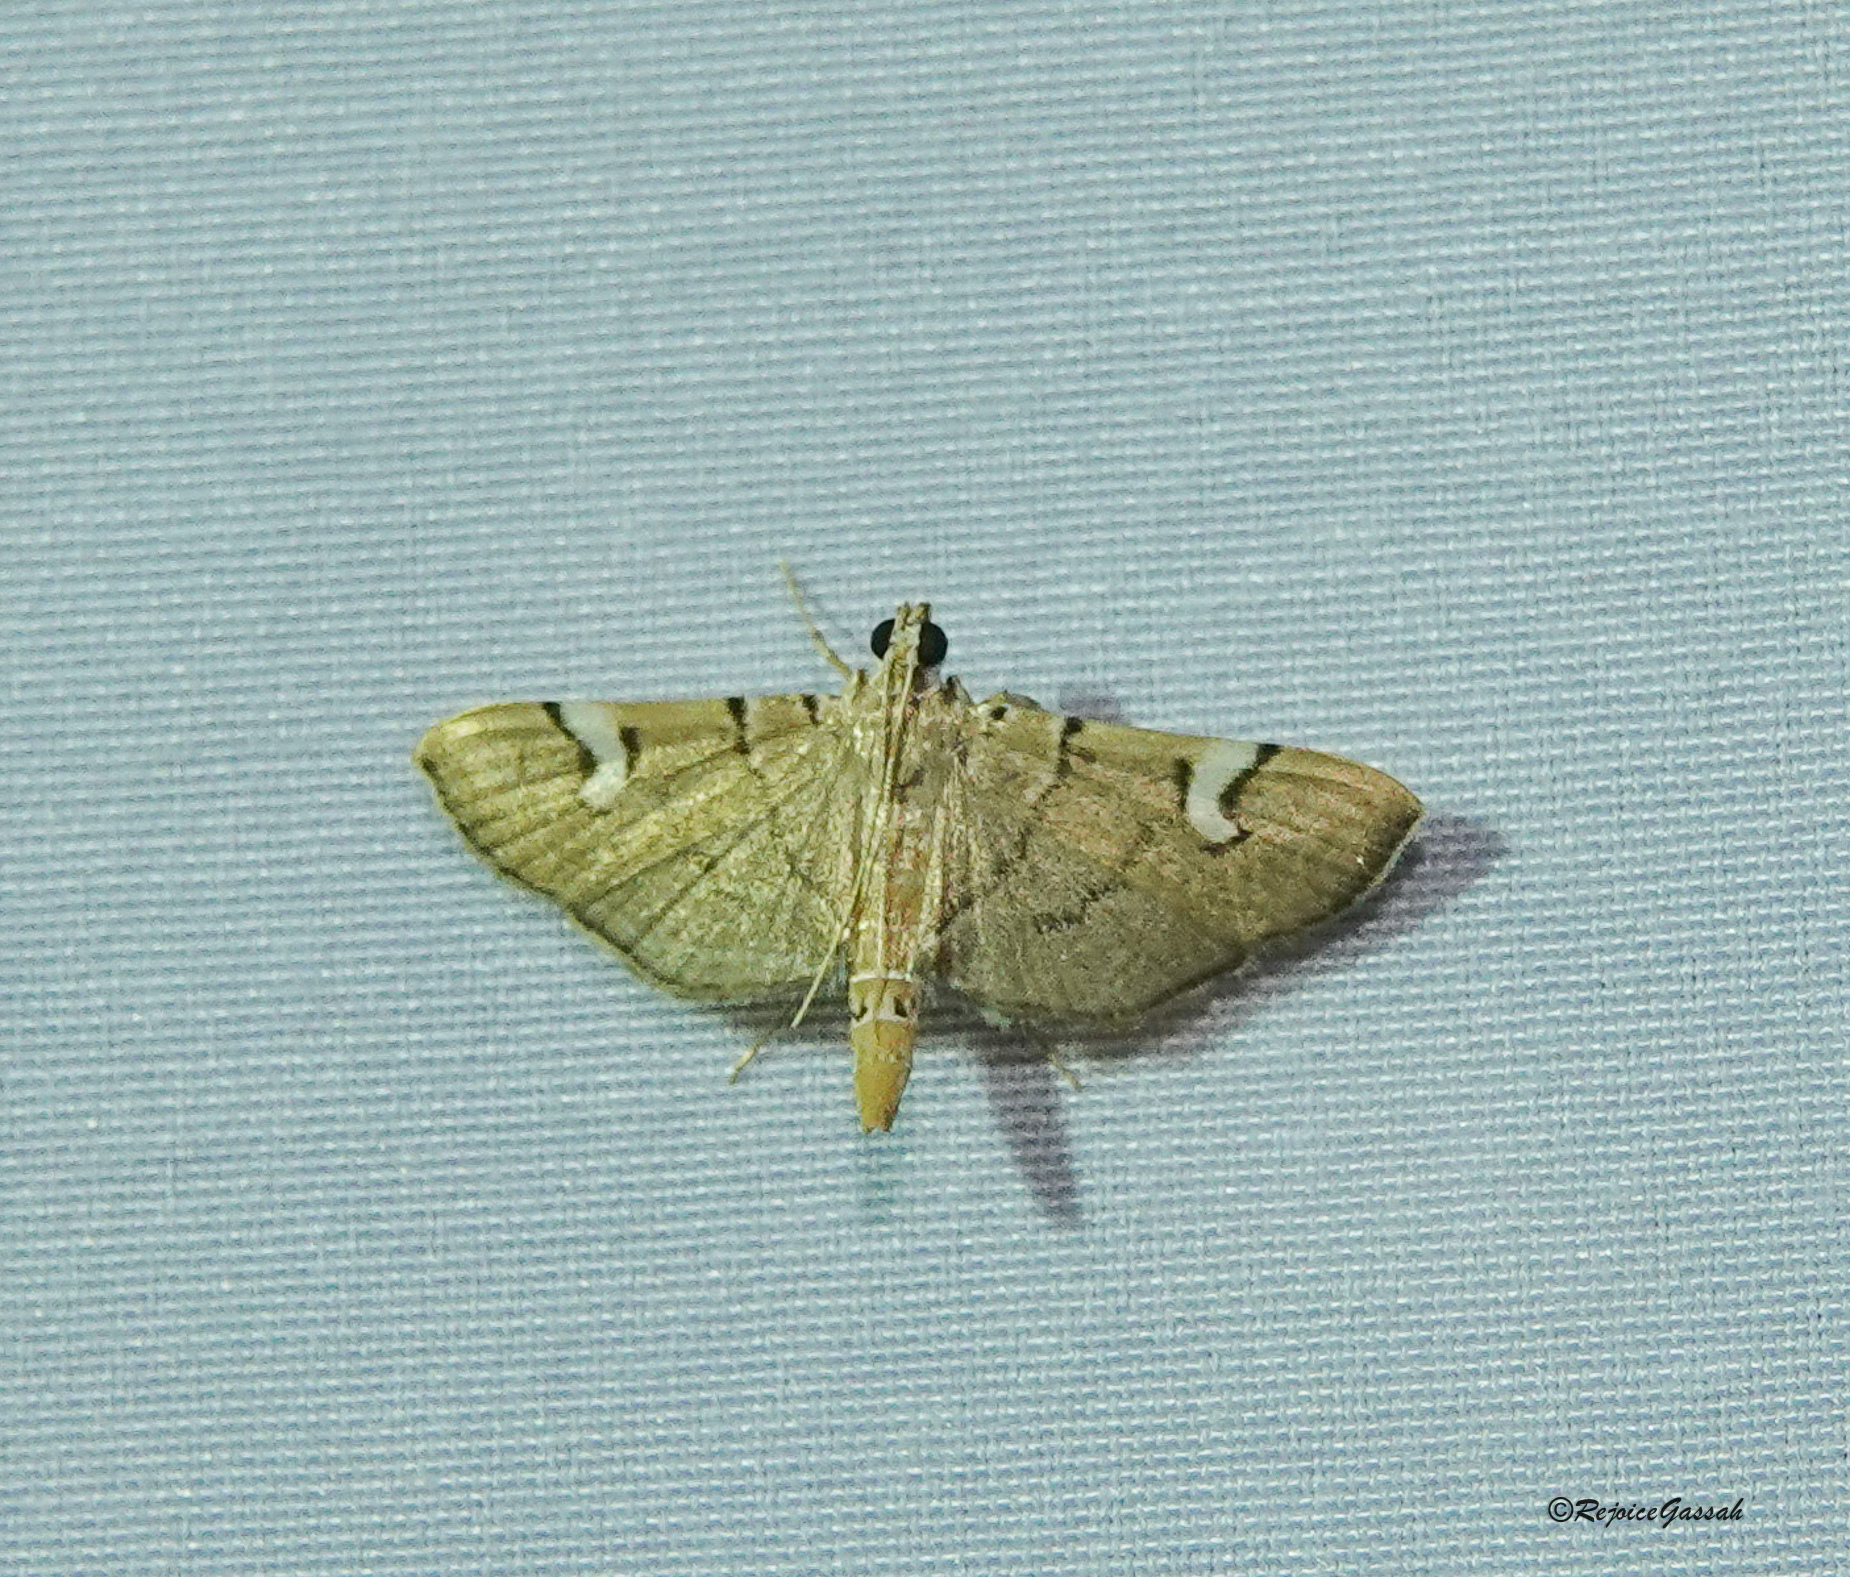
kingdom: Animalia
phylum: Arthropoda
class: Insecta
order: Lepidoptera
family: Crambidae
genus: Chalcidoptera
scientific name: Chalcidoptera appensalis
